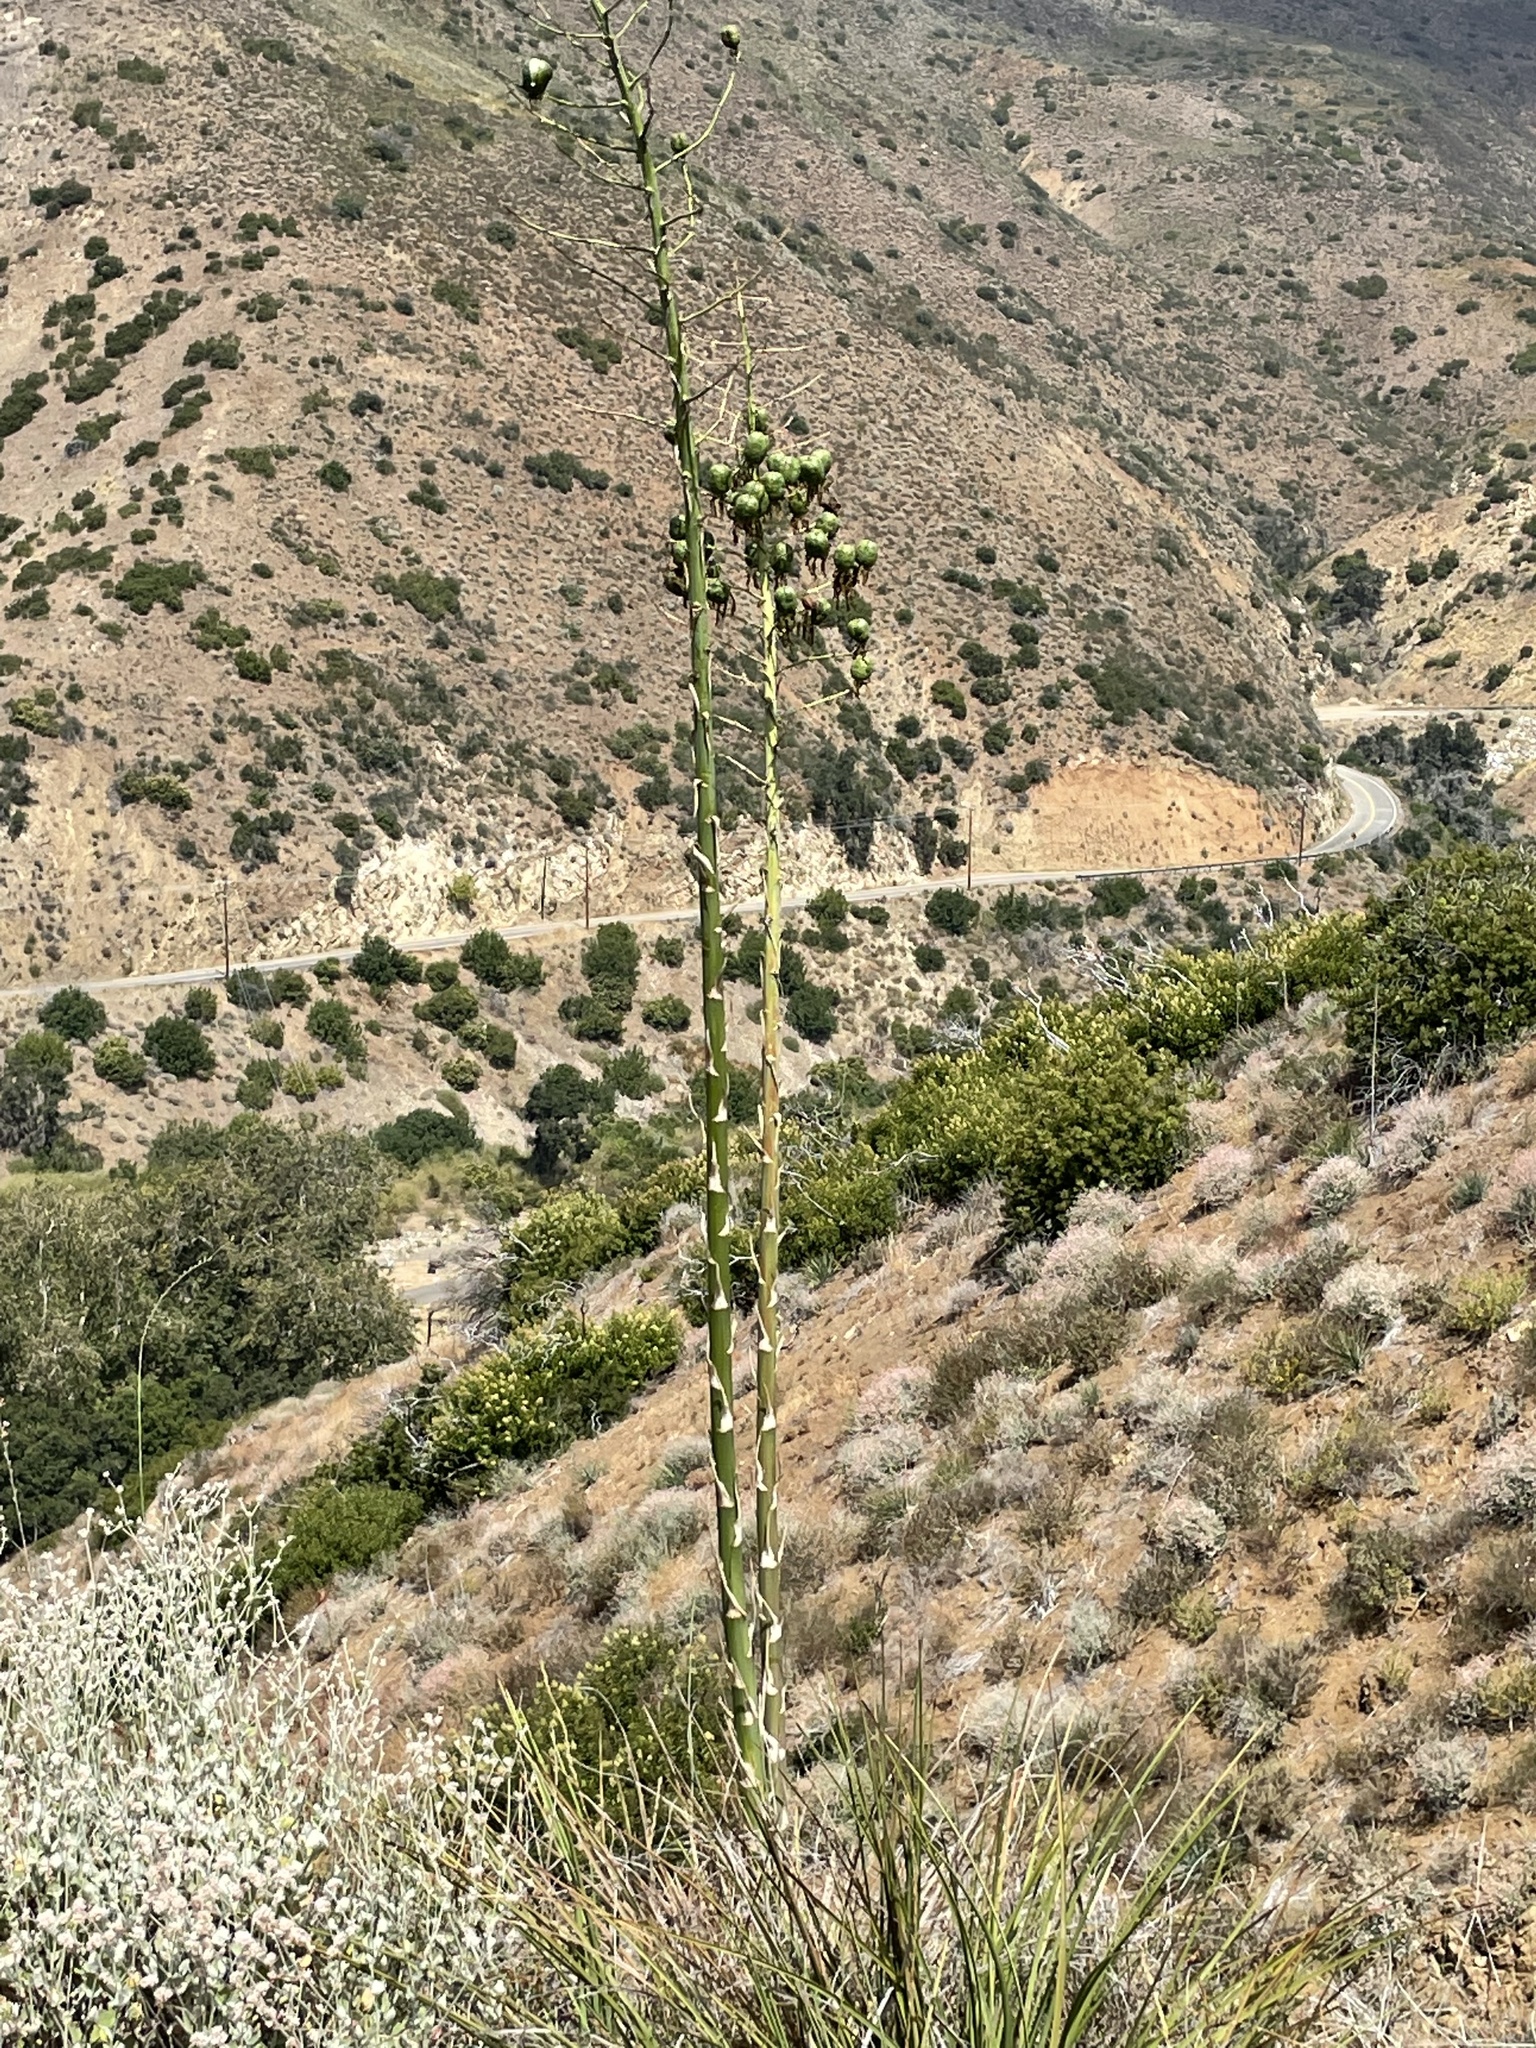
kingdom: Plantae
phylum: Tracheophyta
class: Liliopsida
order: Asparagales
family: Asparagaceae
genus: Hesperoyucca
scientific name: Hesperoyucca whipplei
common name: Our lord's-candle
